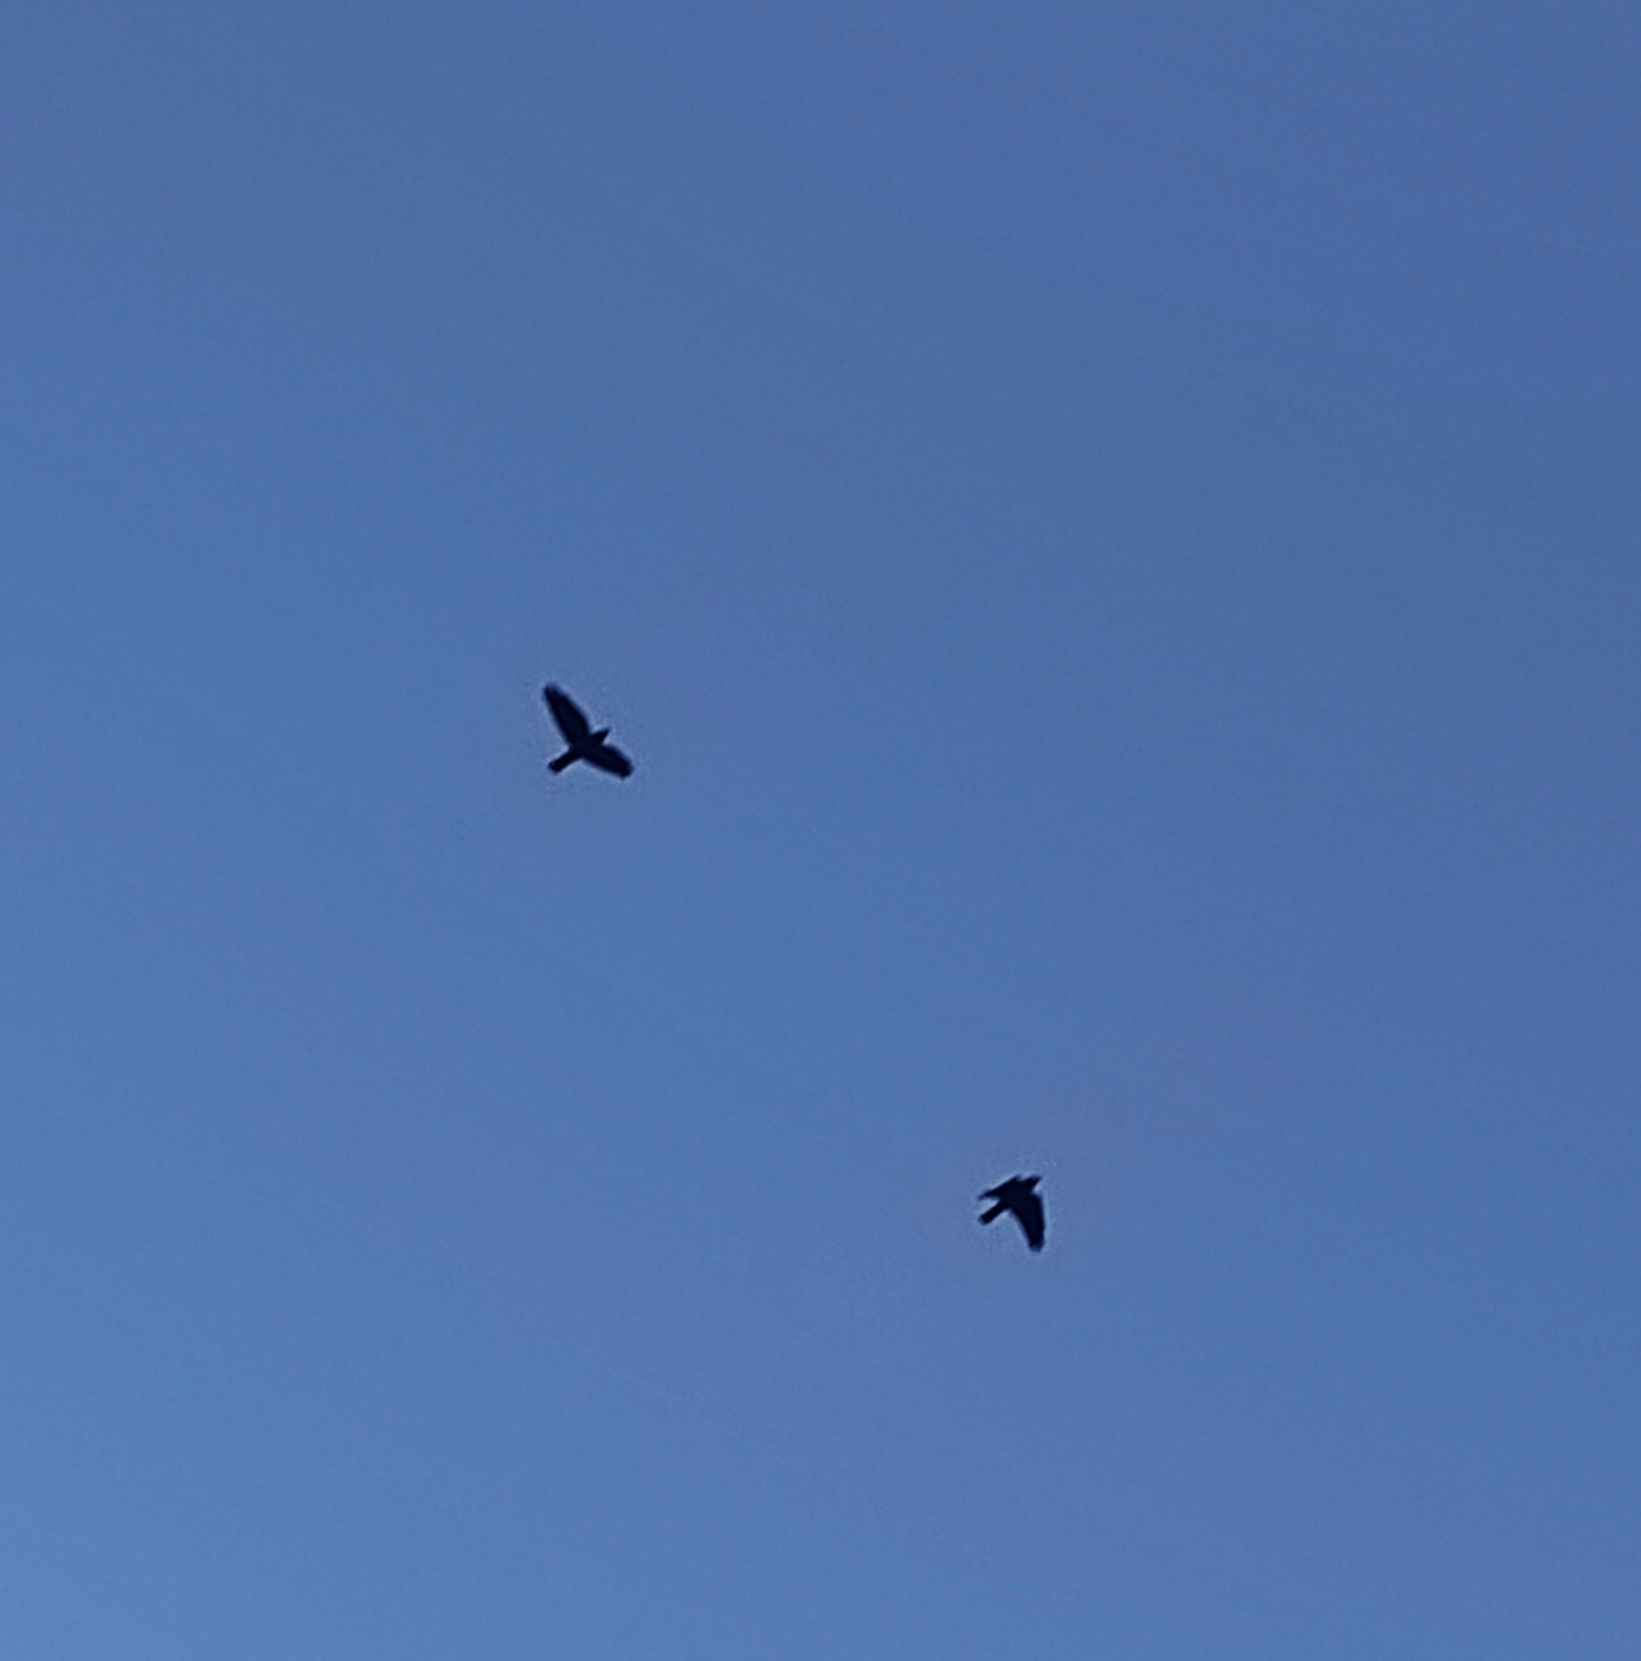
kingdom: Animalia
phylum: Chordata
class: Aves
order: Passeriformes
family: Corvidae
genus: Coloeus
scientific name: Coloeus monedula
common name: Western jackdaw
